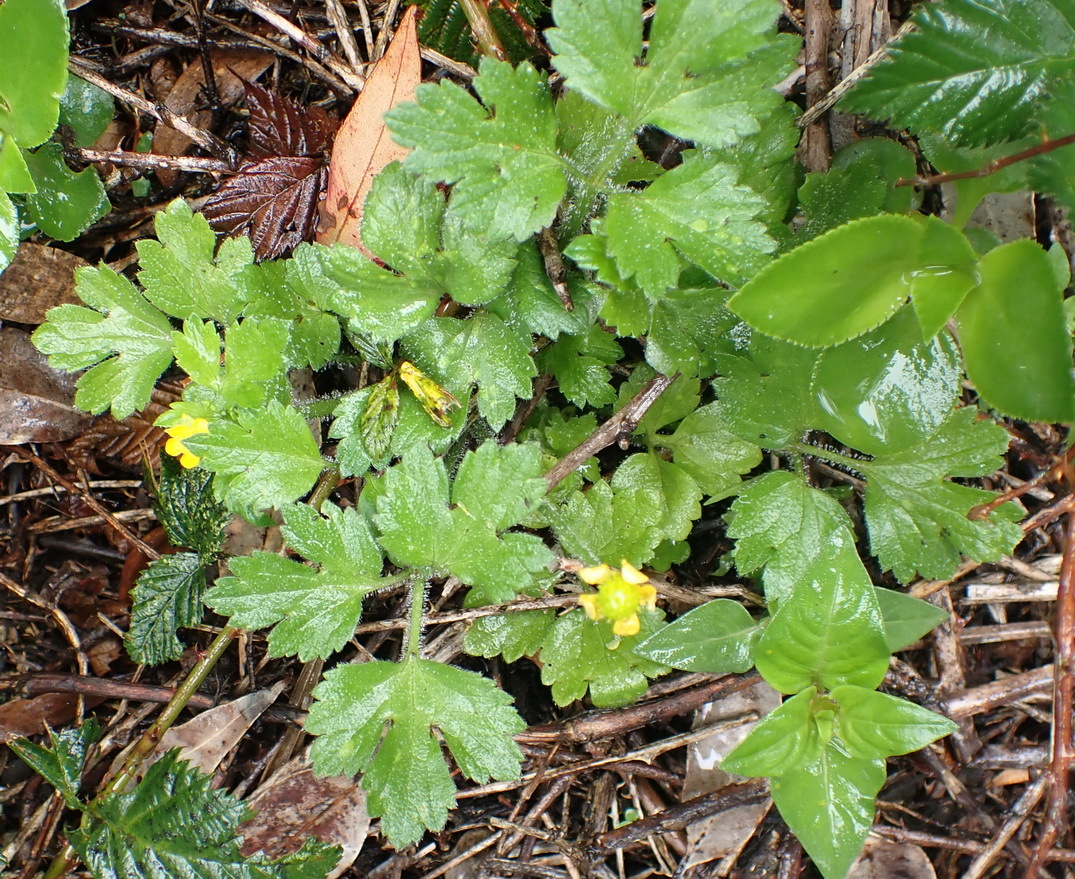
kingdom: Plantae
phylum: Tracheophyta
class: Magnoliopsida
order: Ranunculales
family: Ranunculaceae
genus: Ranunculus
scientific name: Ranunculus multifidus
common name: Wild buttercup
